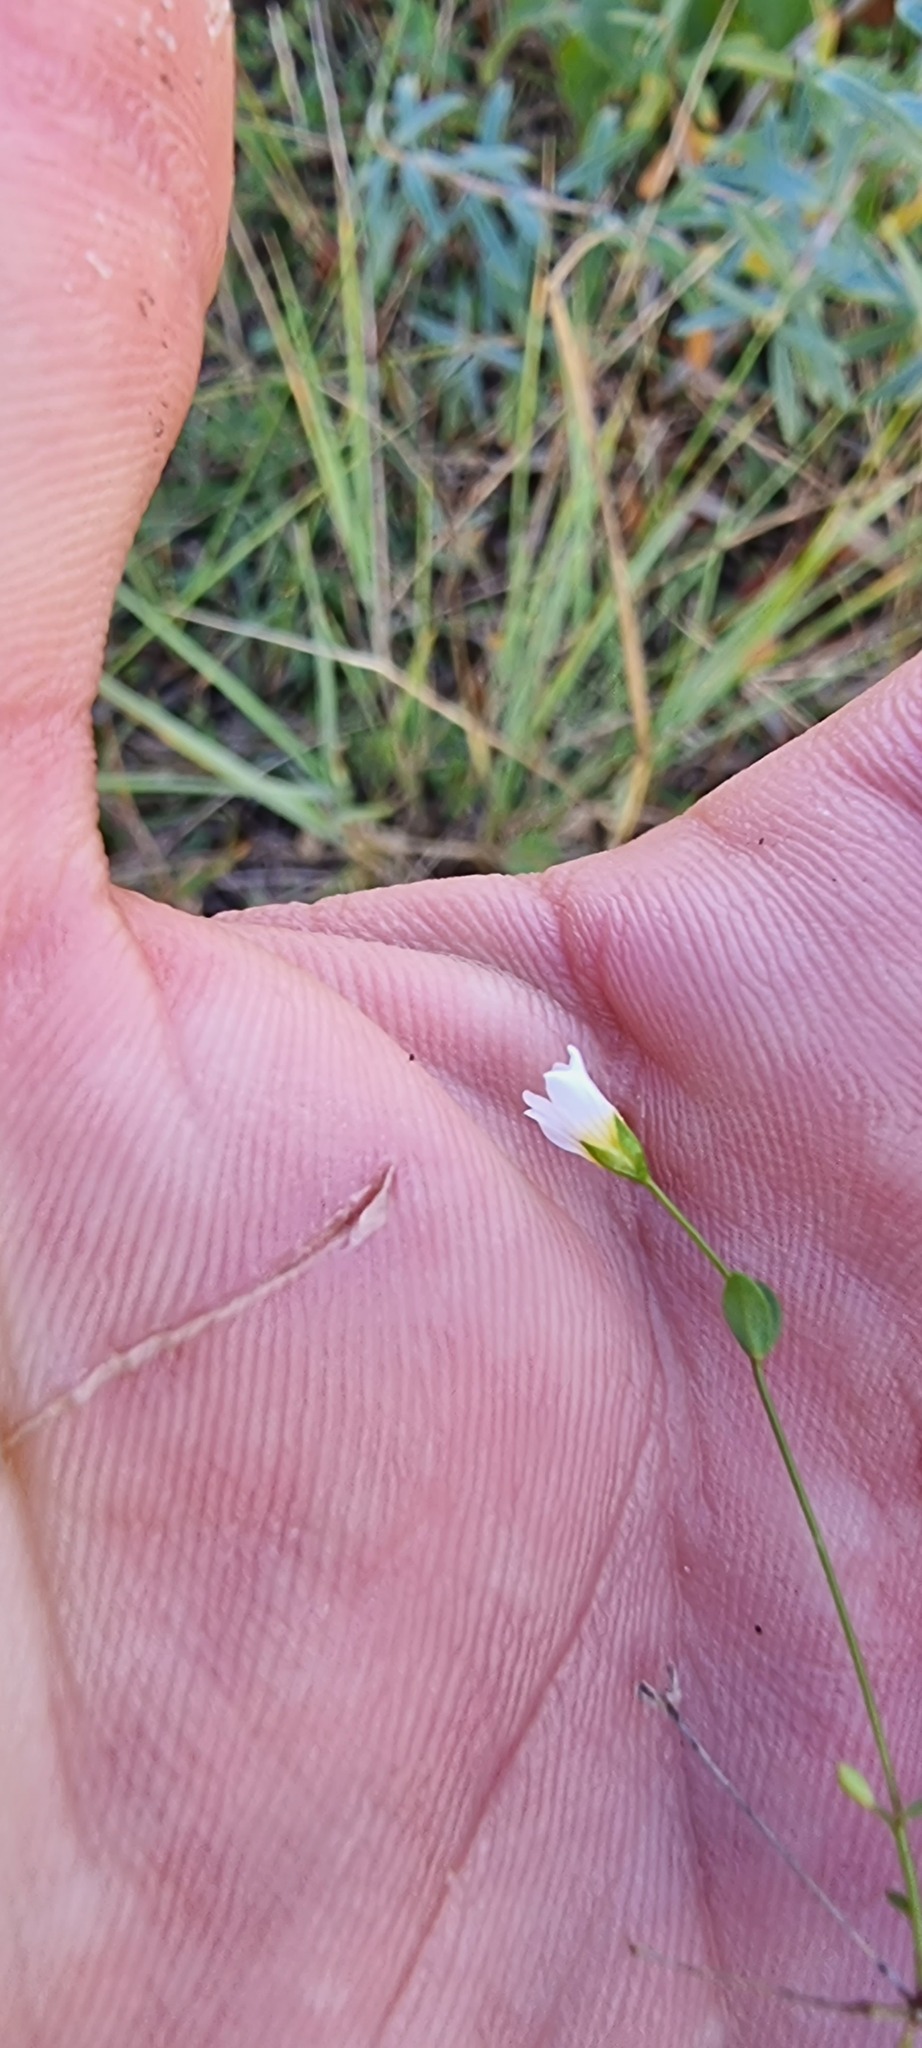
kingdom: Plantae
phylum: Tracheophyta
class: Magnoliopsida
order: Malpighiales
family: Linaceae
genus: Linum
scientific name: Linum catharticum
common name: Fairy flax
